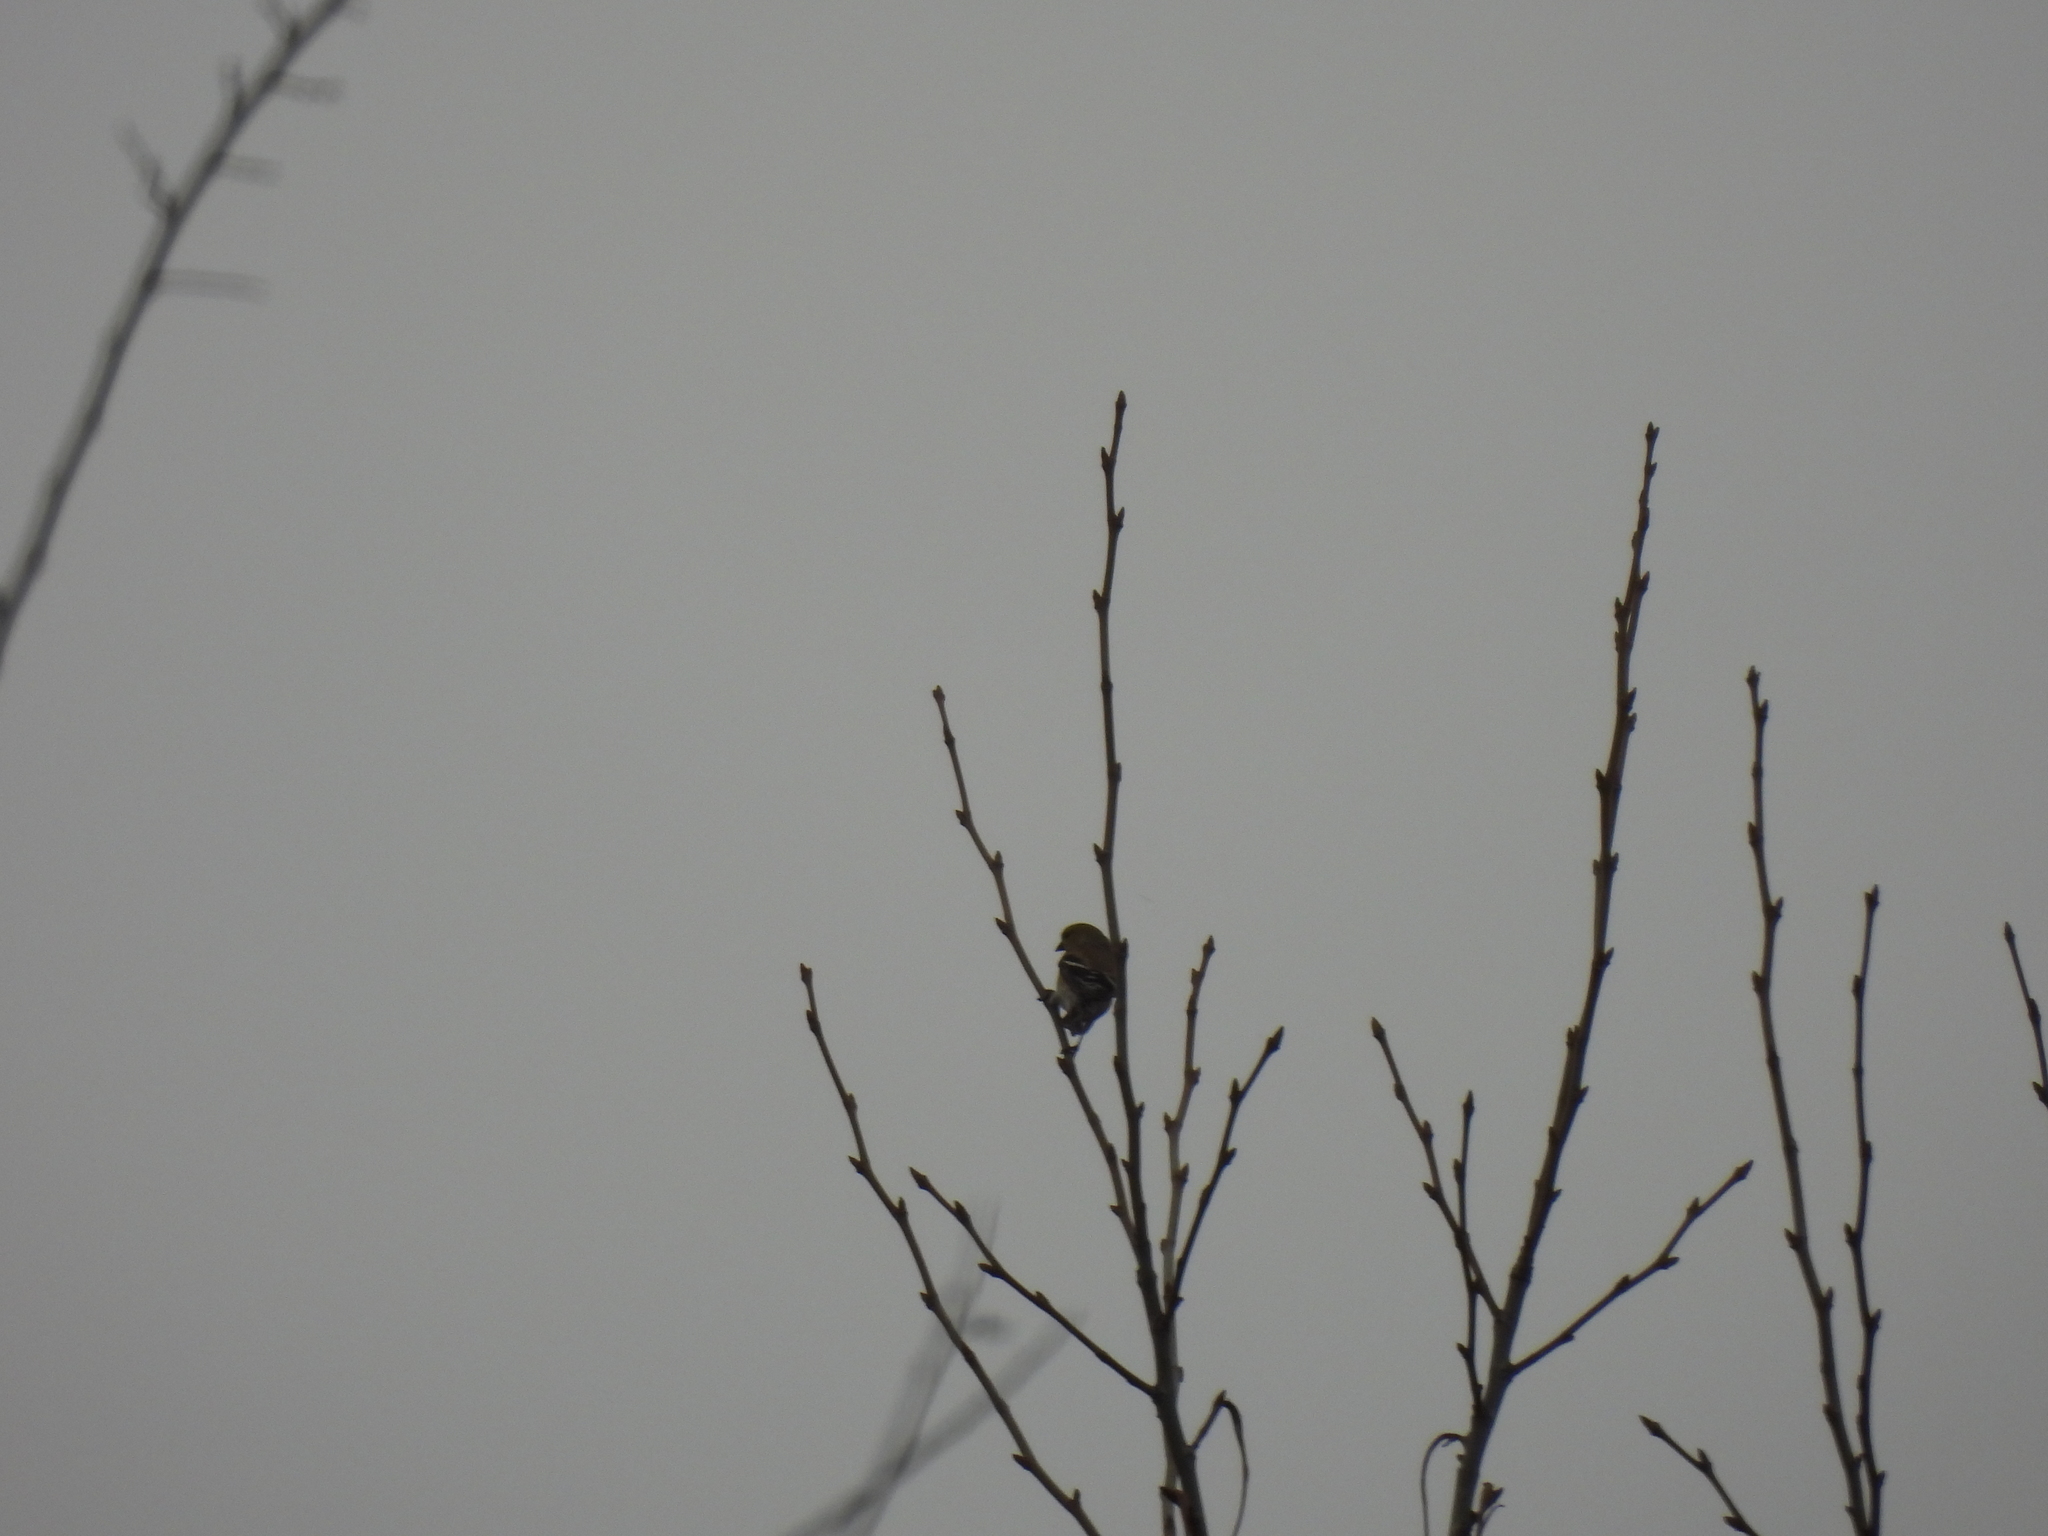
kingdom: Animalia
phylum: Chordata
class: Aves
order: Passeriformes
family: Fringillidae
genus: Spinus
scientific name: Spinus tristis
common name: American goldfinch
